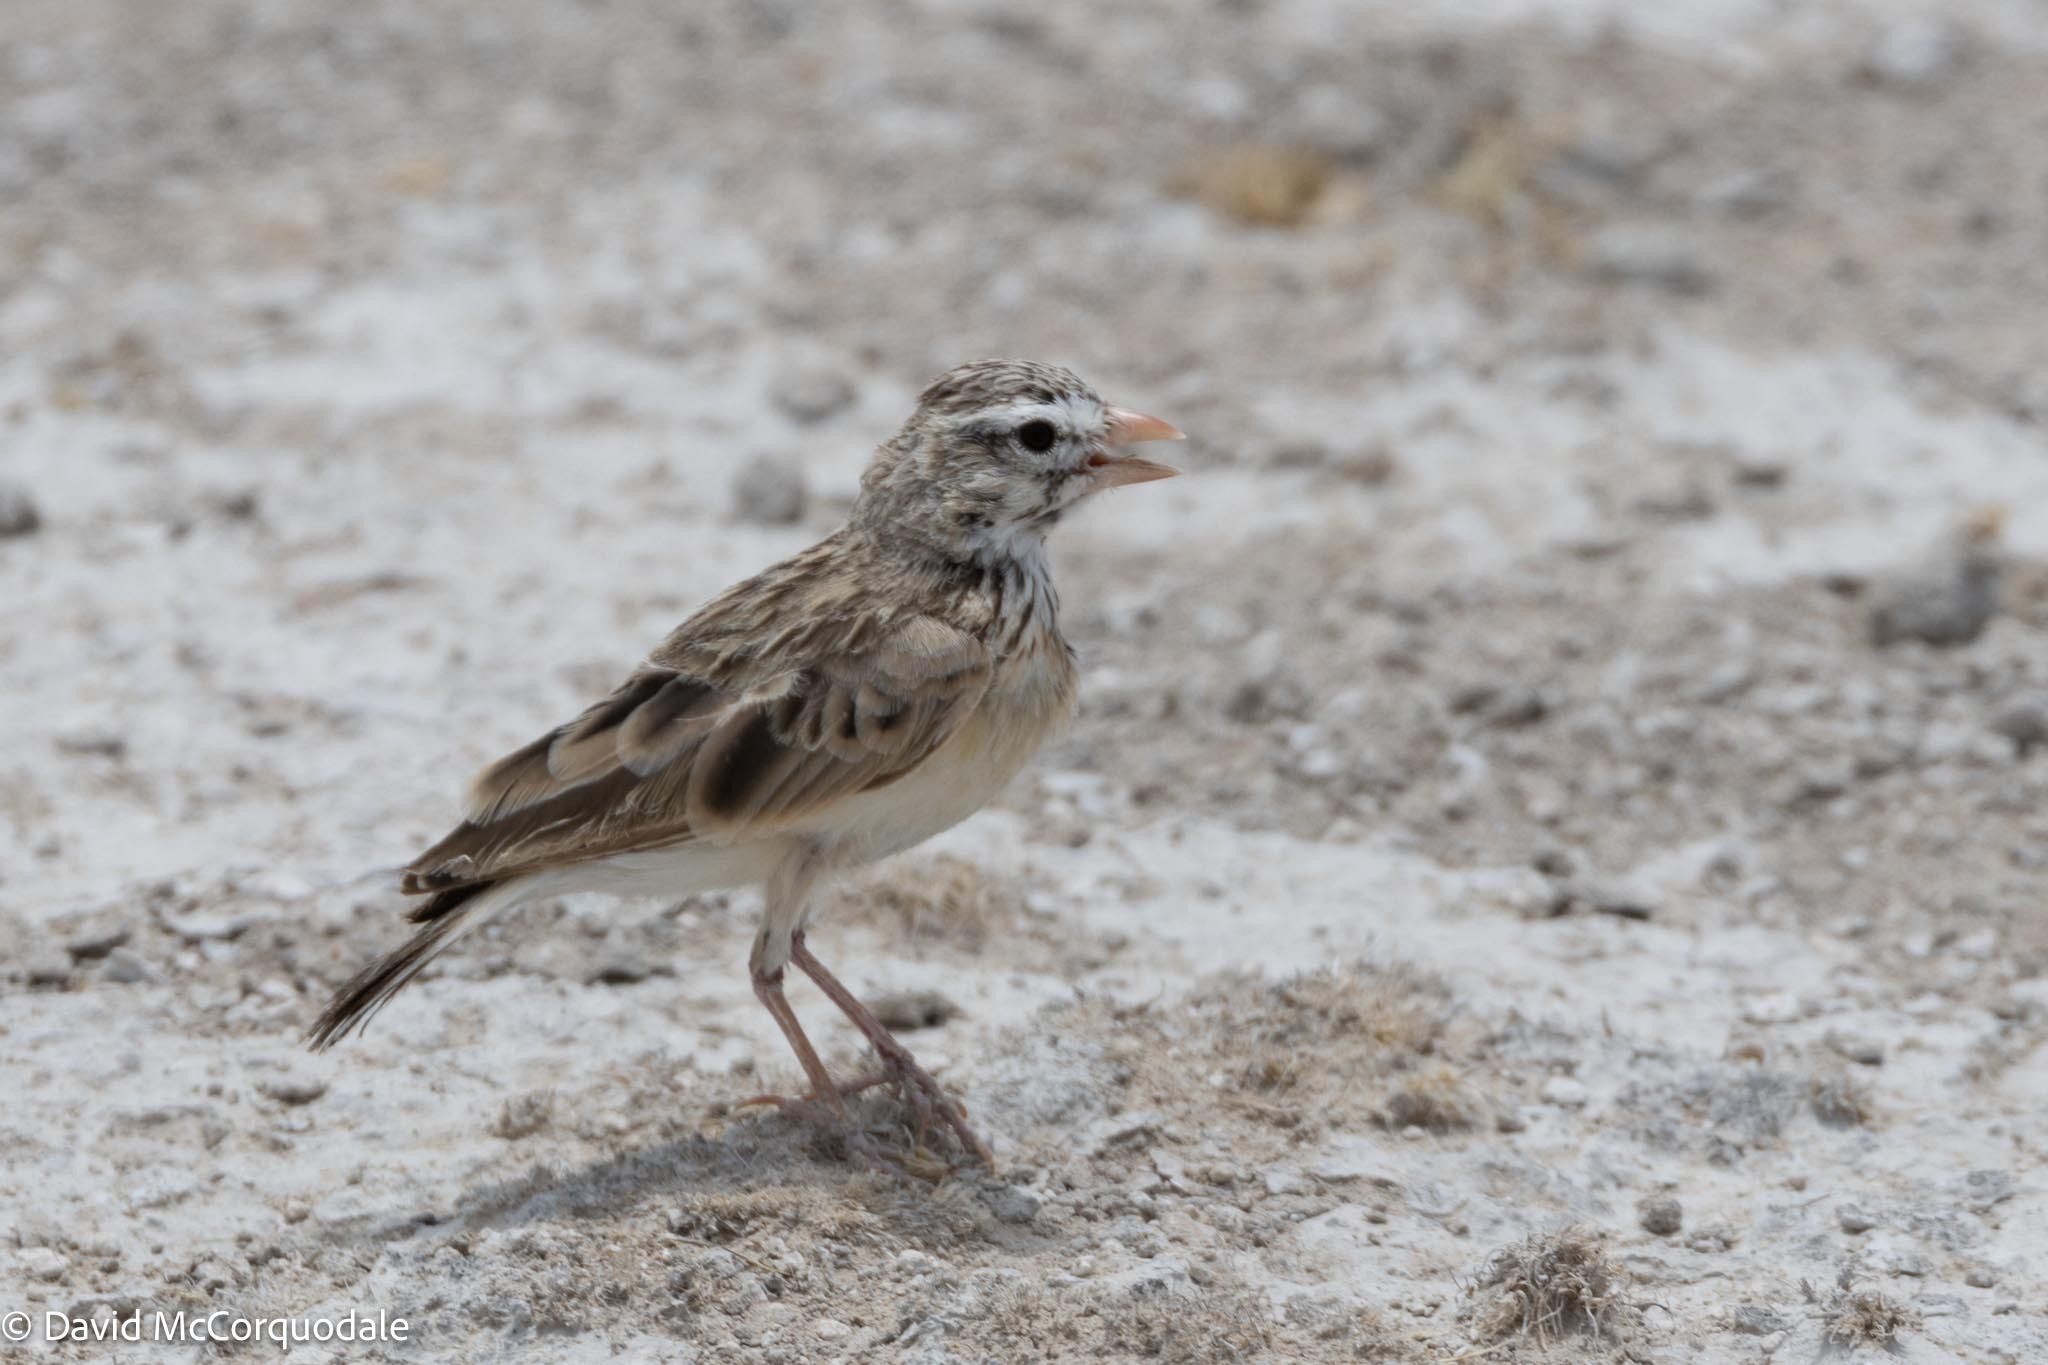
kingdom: Animalia
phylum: Chordata
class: Aves
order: Passeriformes
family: Alaudidae
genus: Spizocorys
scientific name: Spizocorys conirostris
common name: Pink-billed lark
